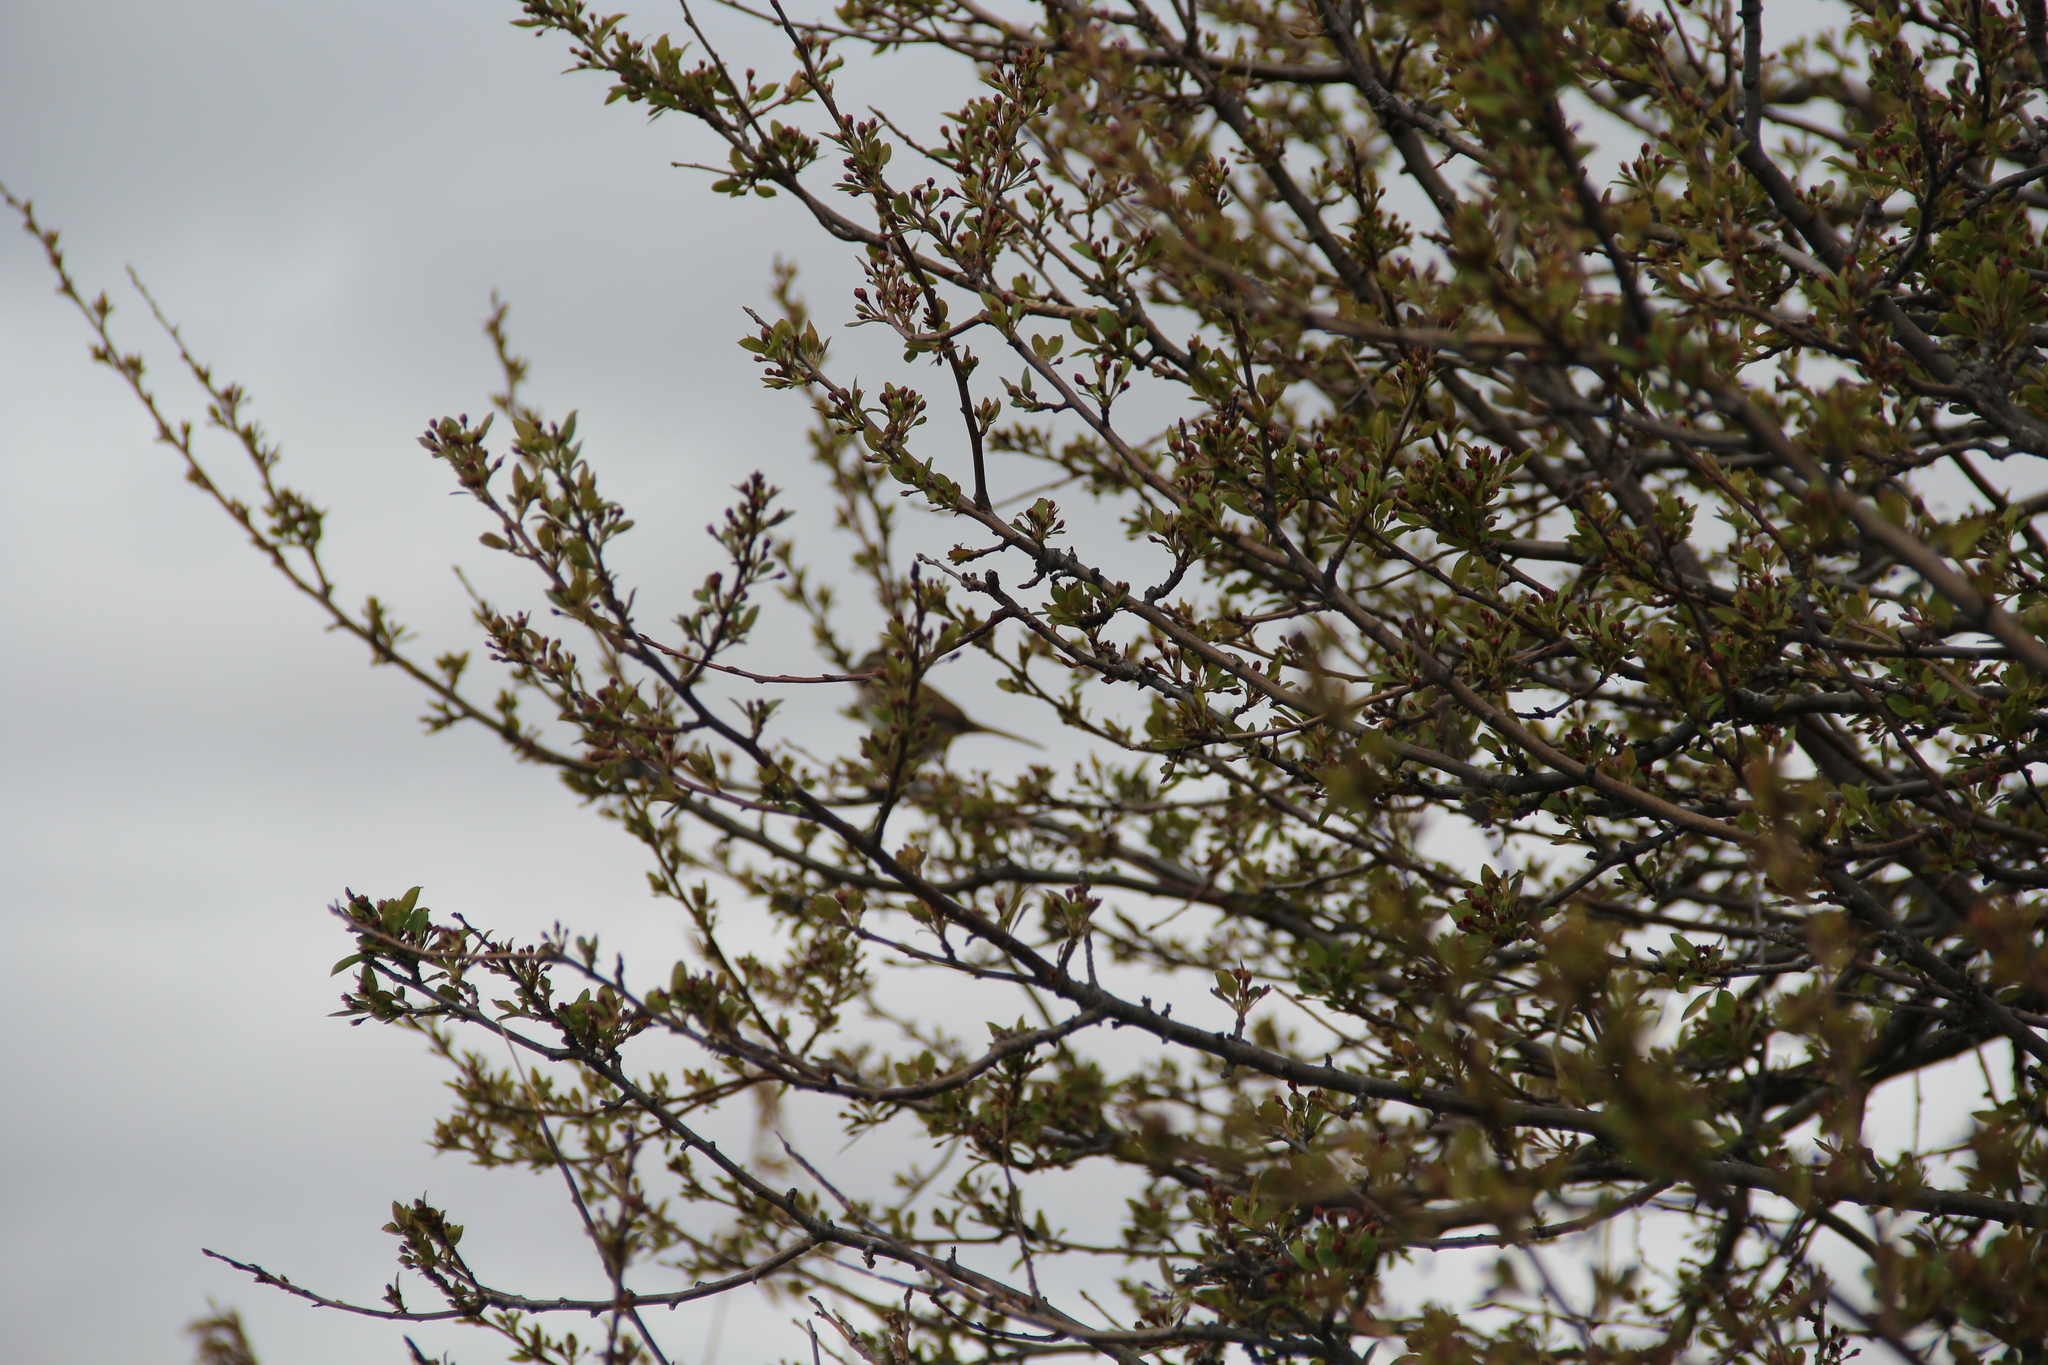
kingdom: Animalia
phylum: Chordata
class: Aves
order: Passeriformes
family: Passerellidae
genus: Melospiza
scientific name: Melospiza melodia
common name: Song sparrow
